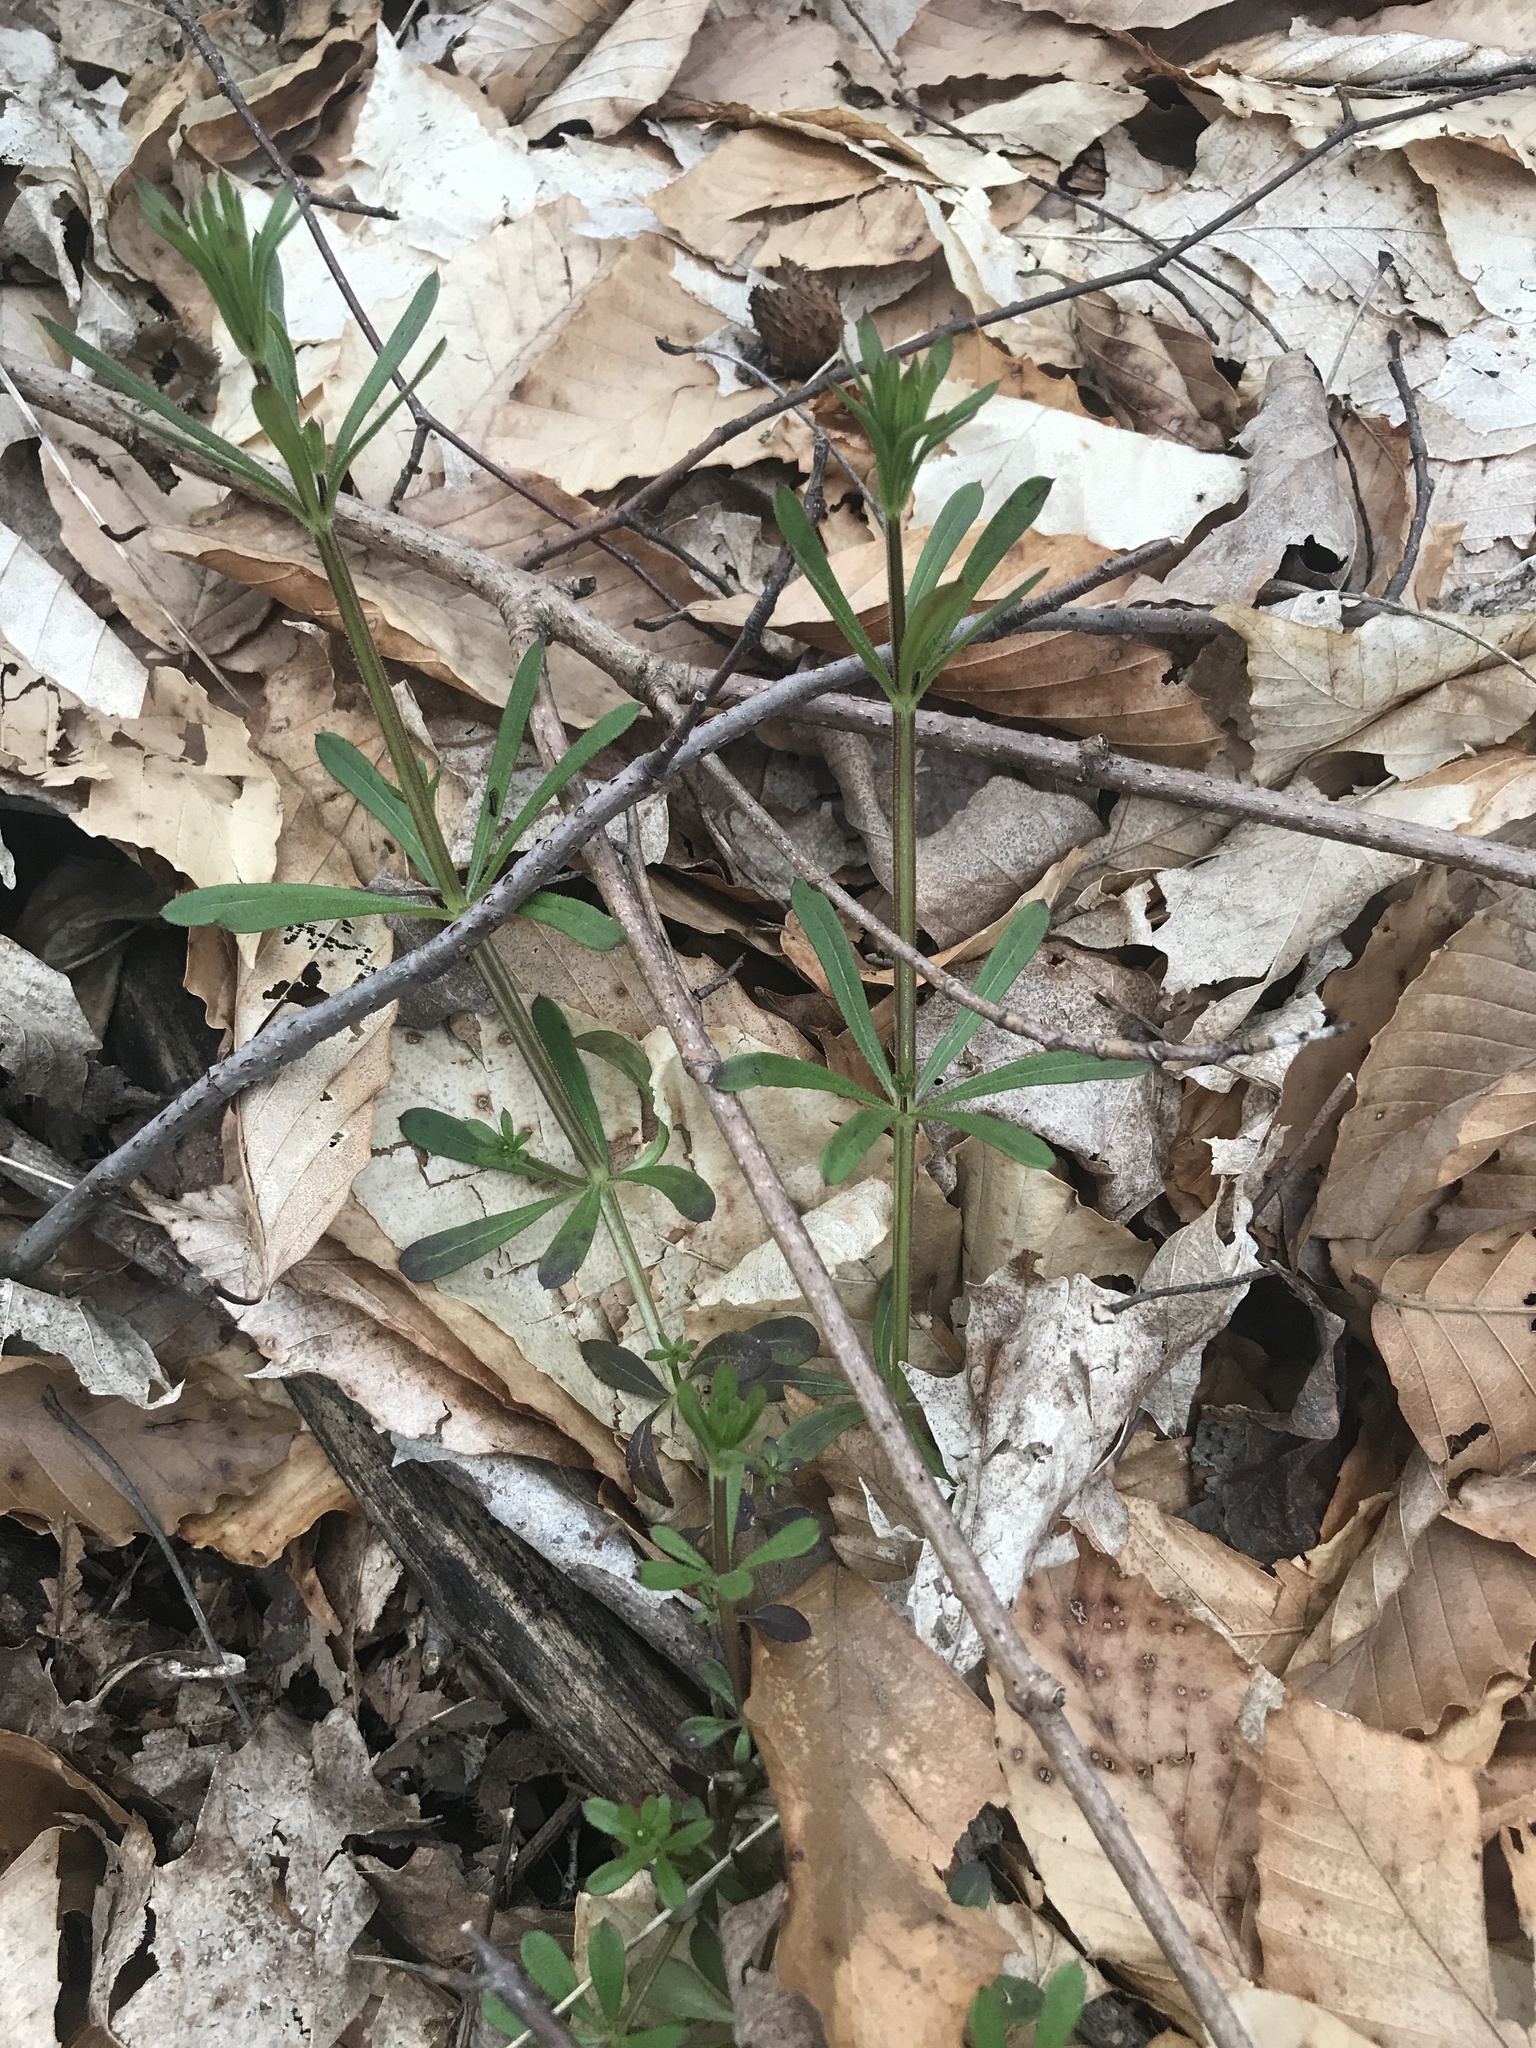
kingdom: Plantae
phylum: Tracheophyta
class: Magnoliopsida
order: Gentianales
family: Rubiaceae
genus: Galium
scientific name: Galium aparine
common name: Cleavers
